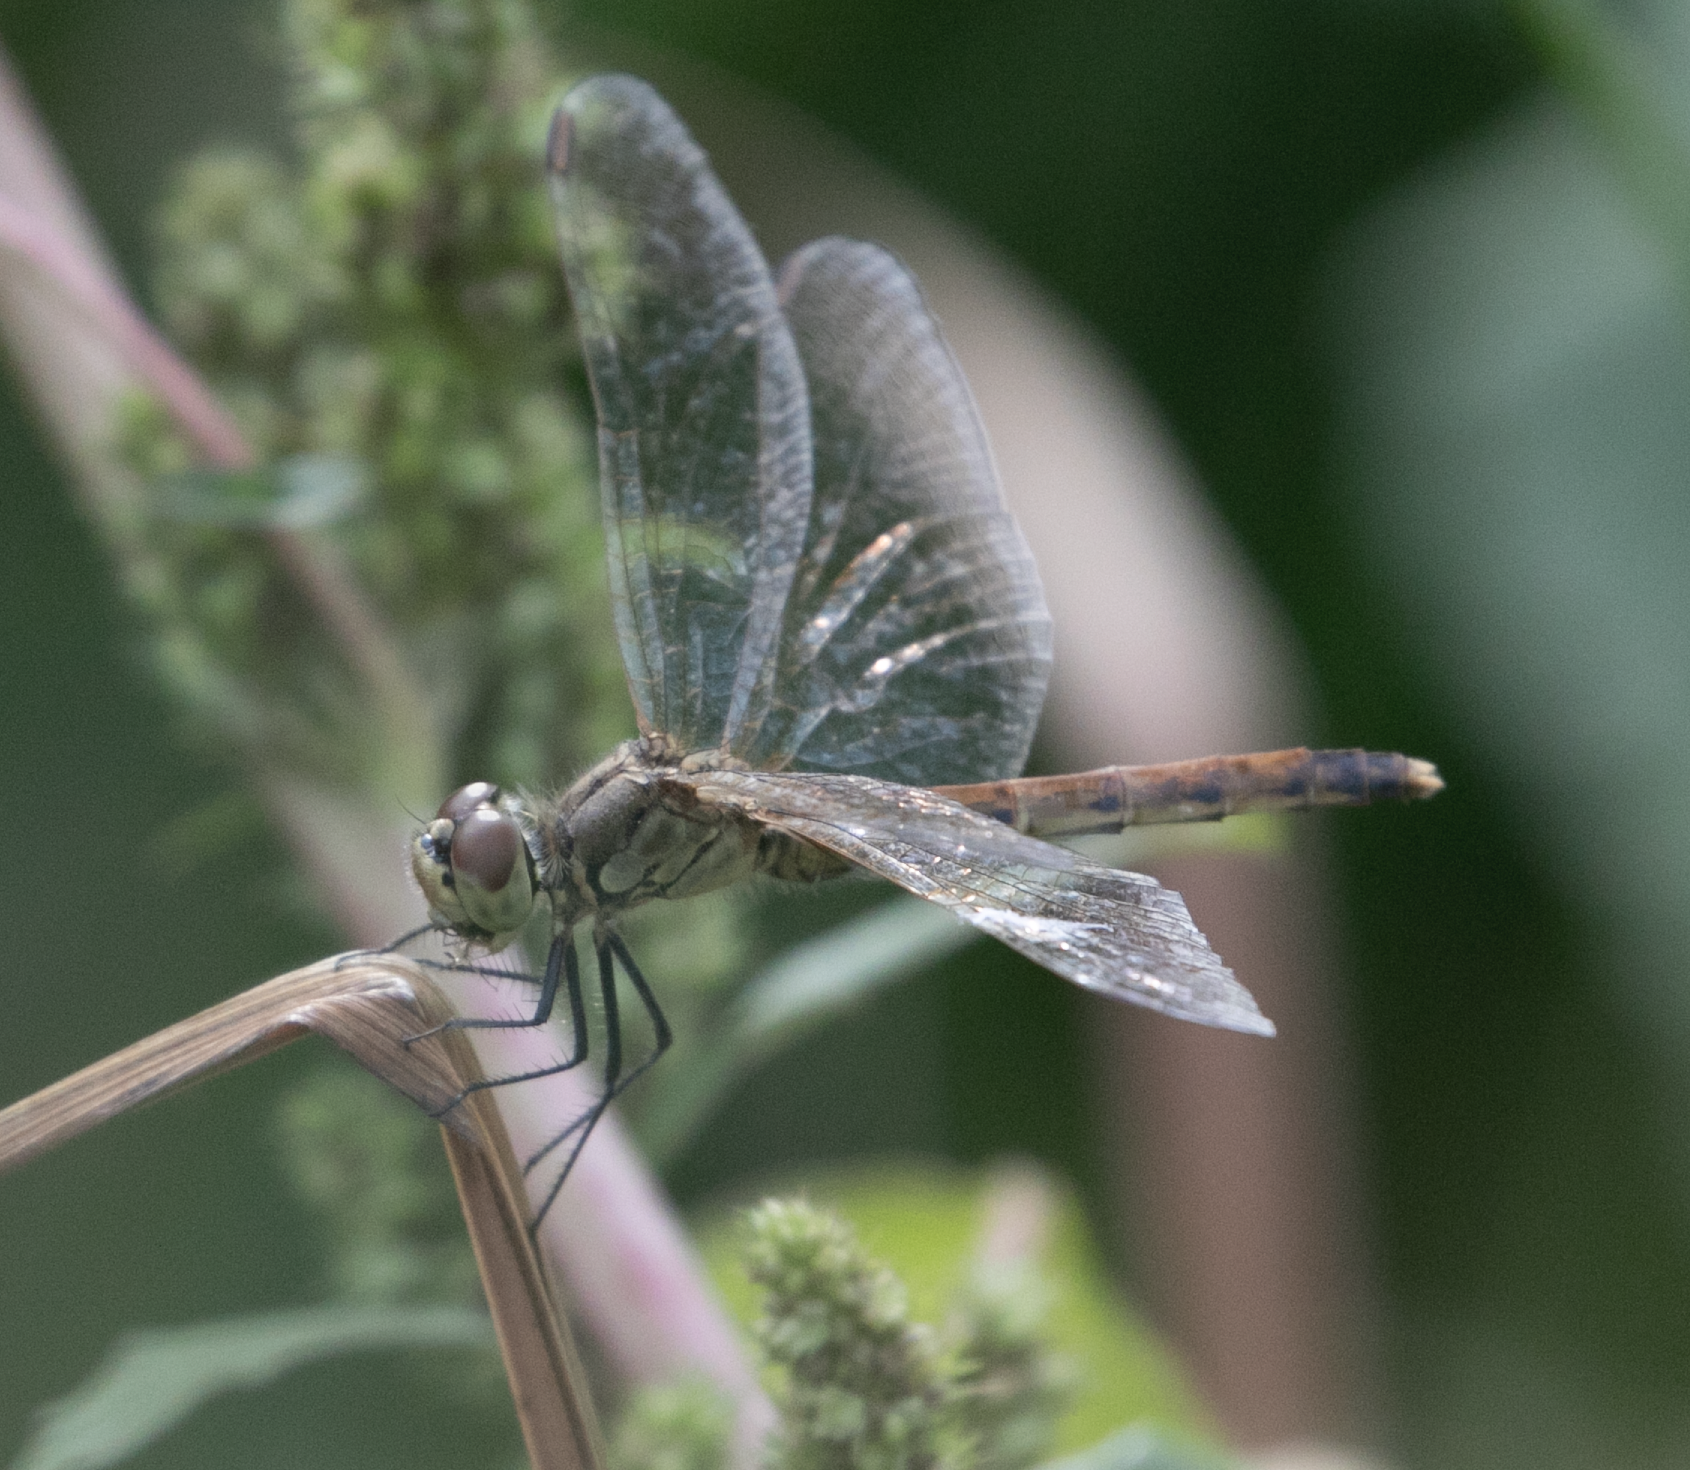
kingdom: Animalia
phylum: Arthropoda
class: Insecta
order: Odonata
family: Libellulidae
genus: Sympetrum
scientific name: Sympetrum depressiusculum
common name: Spotted darter
